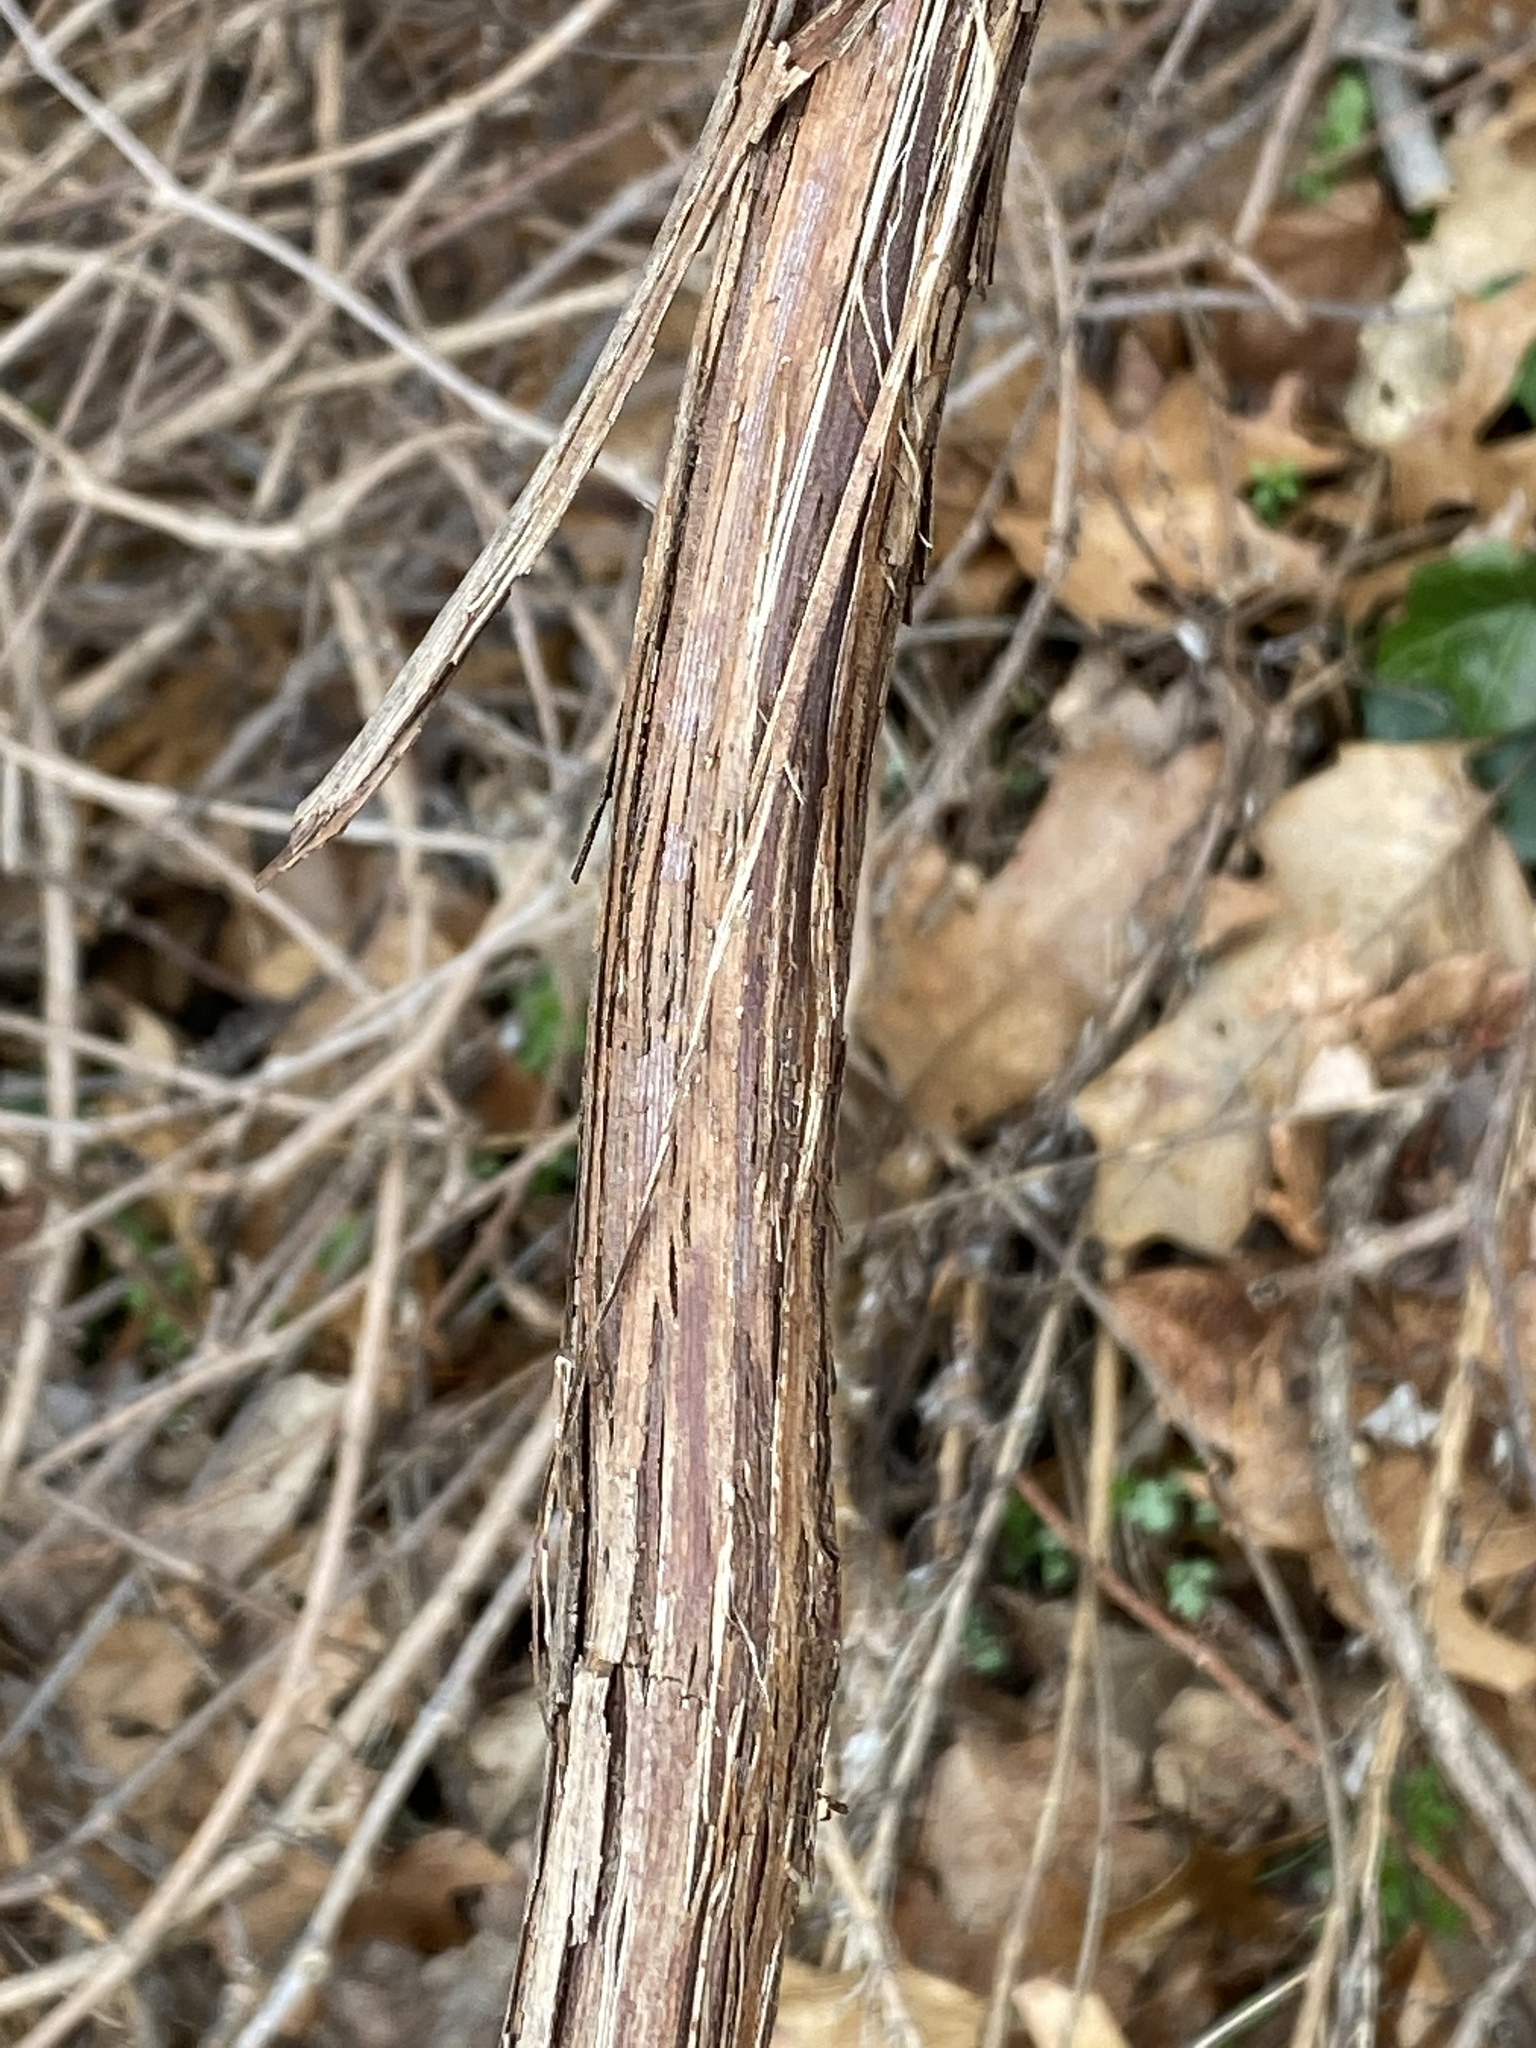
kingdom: Plantae
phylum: Tracheophyta
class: Magnoliopsida
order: Vitales
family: Vitaceae
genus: Vitis
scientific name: Vitis
